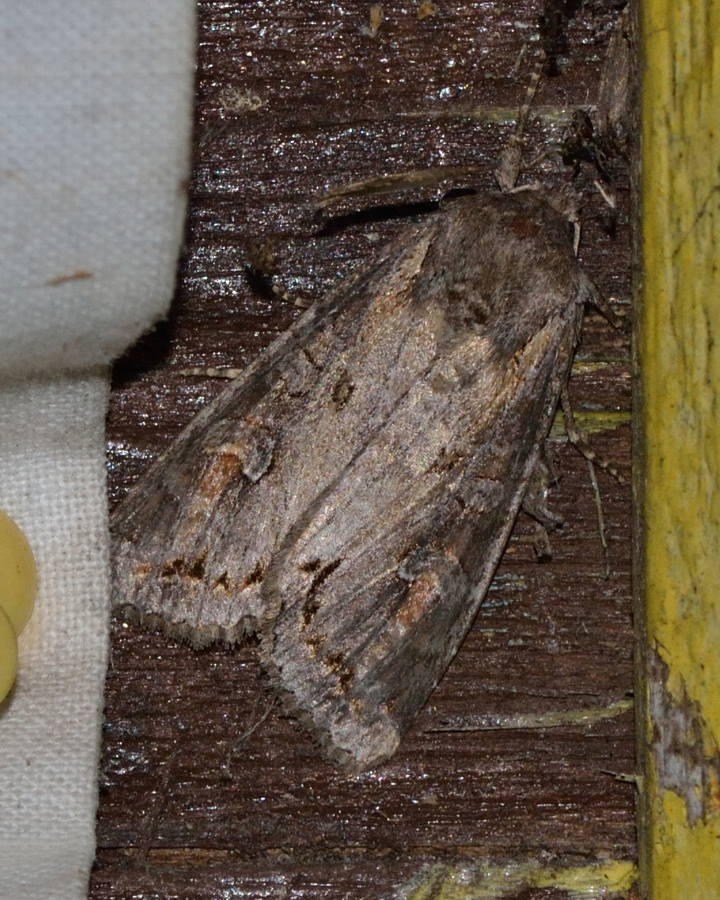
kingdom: Animalia
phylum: Arthropoda
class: Insecta
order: Lepidoptera
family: Noctuidae
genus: Polia
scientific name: Polia bombycina
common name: Pale shining brown
